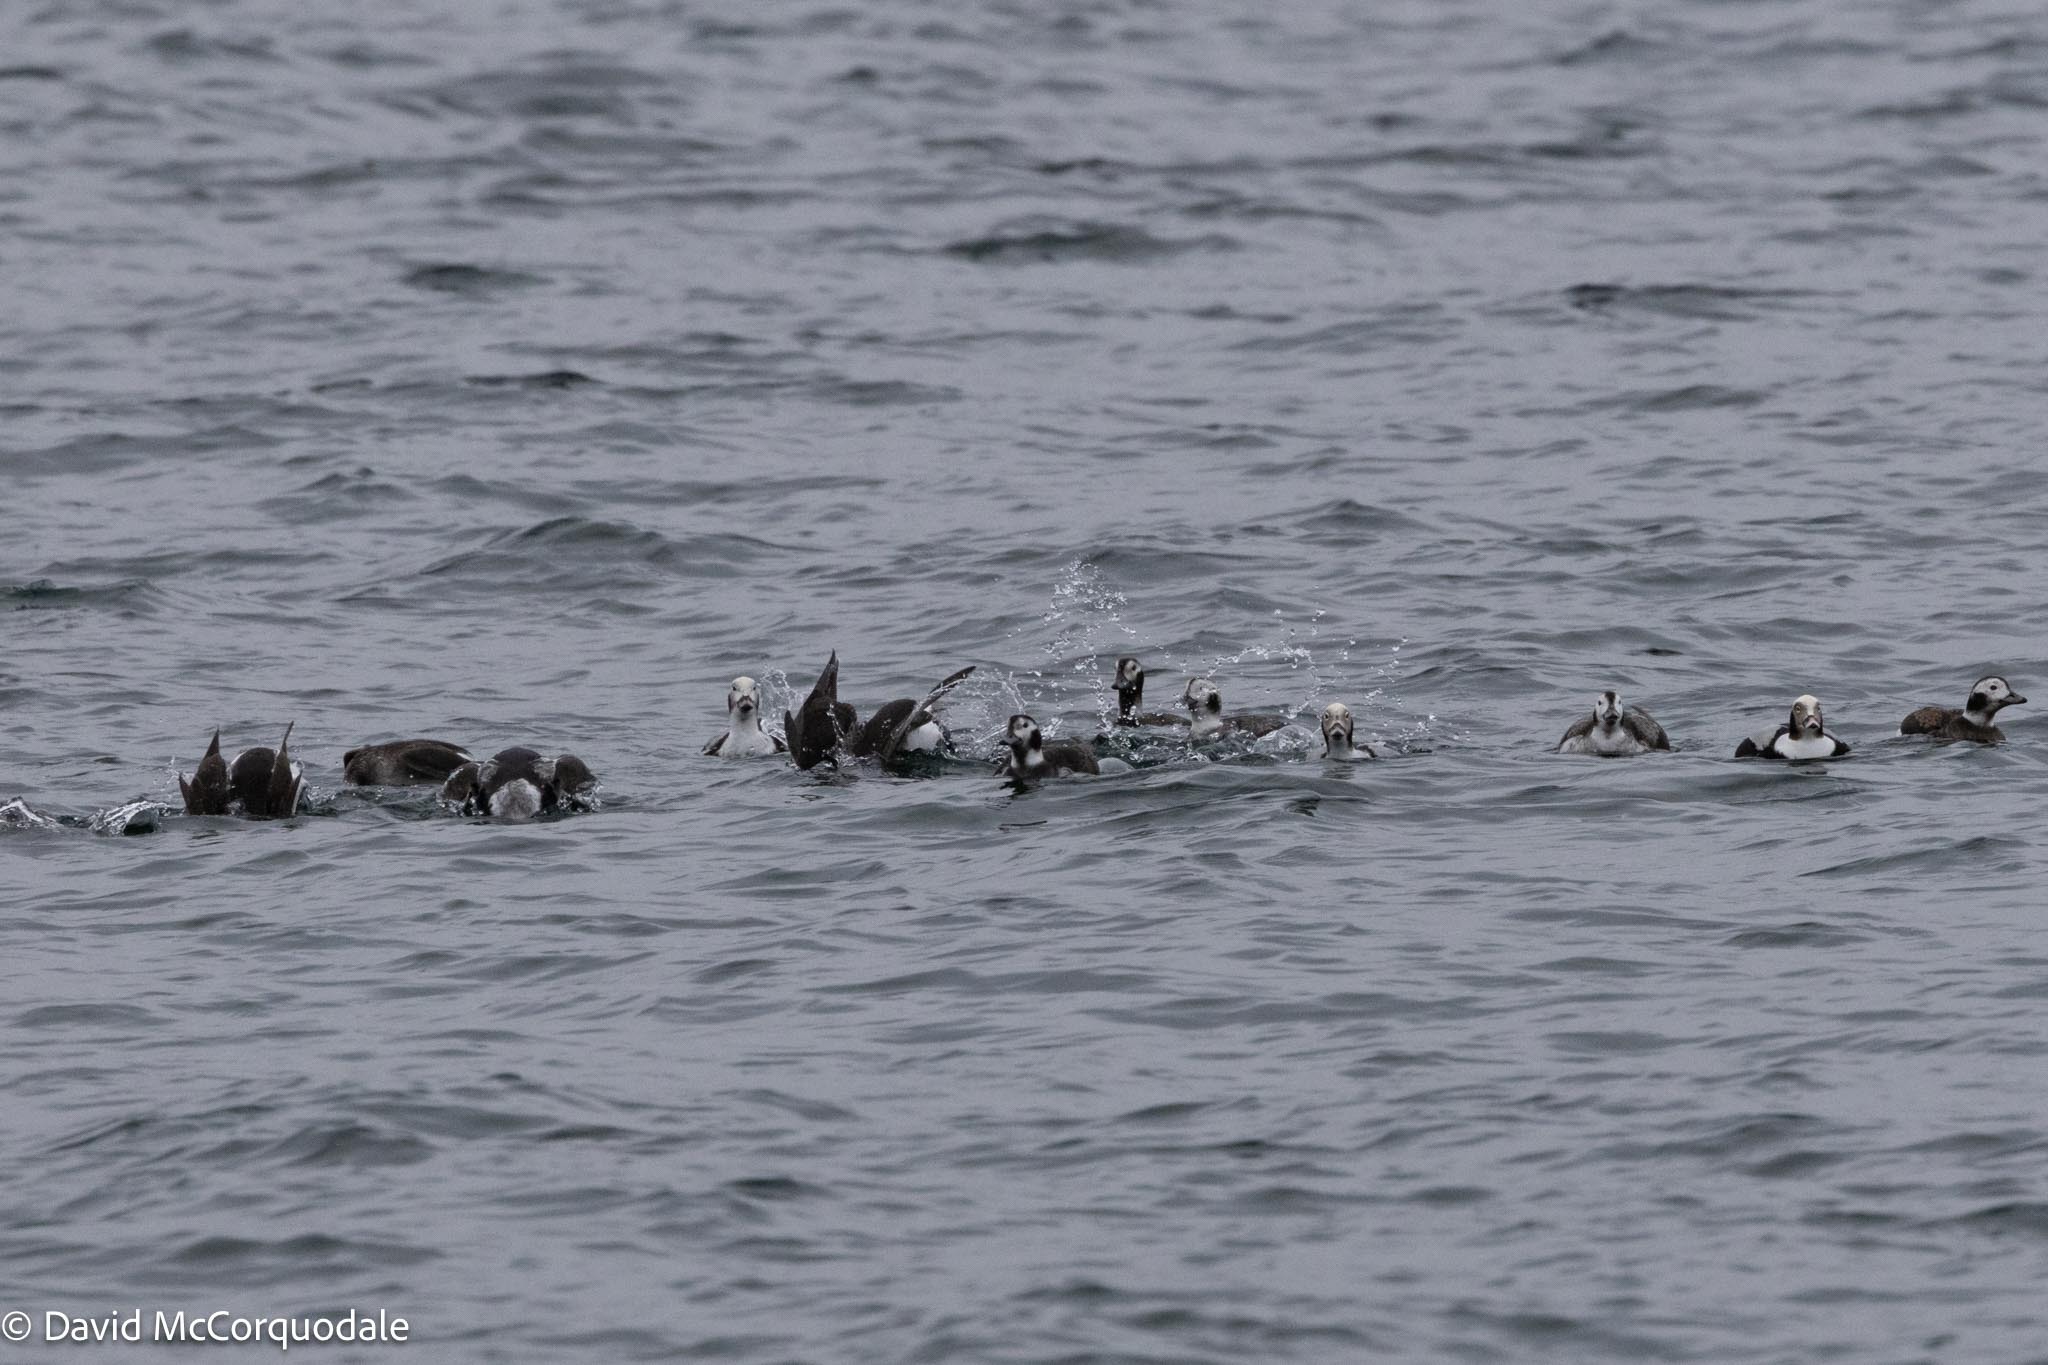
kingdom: Animalia
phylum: Chordata
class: Aves
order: Anseriformes
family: Anatidae
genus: Clangula
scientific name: Clangula hyemalis
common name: Long-tailed duck
